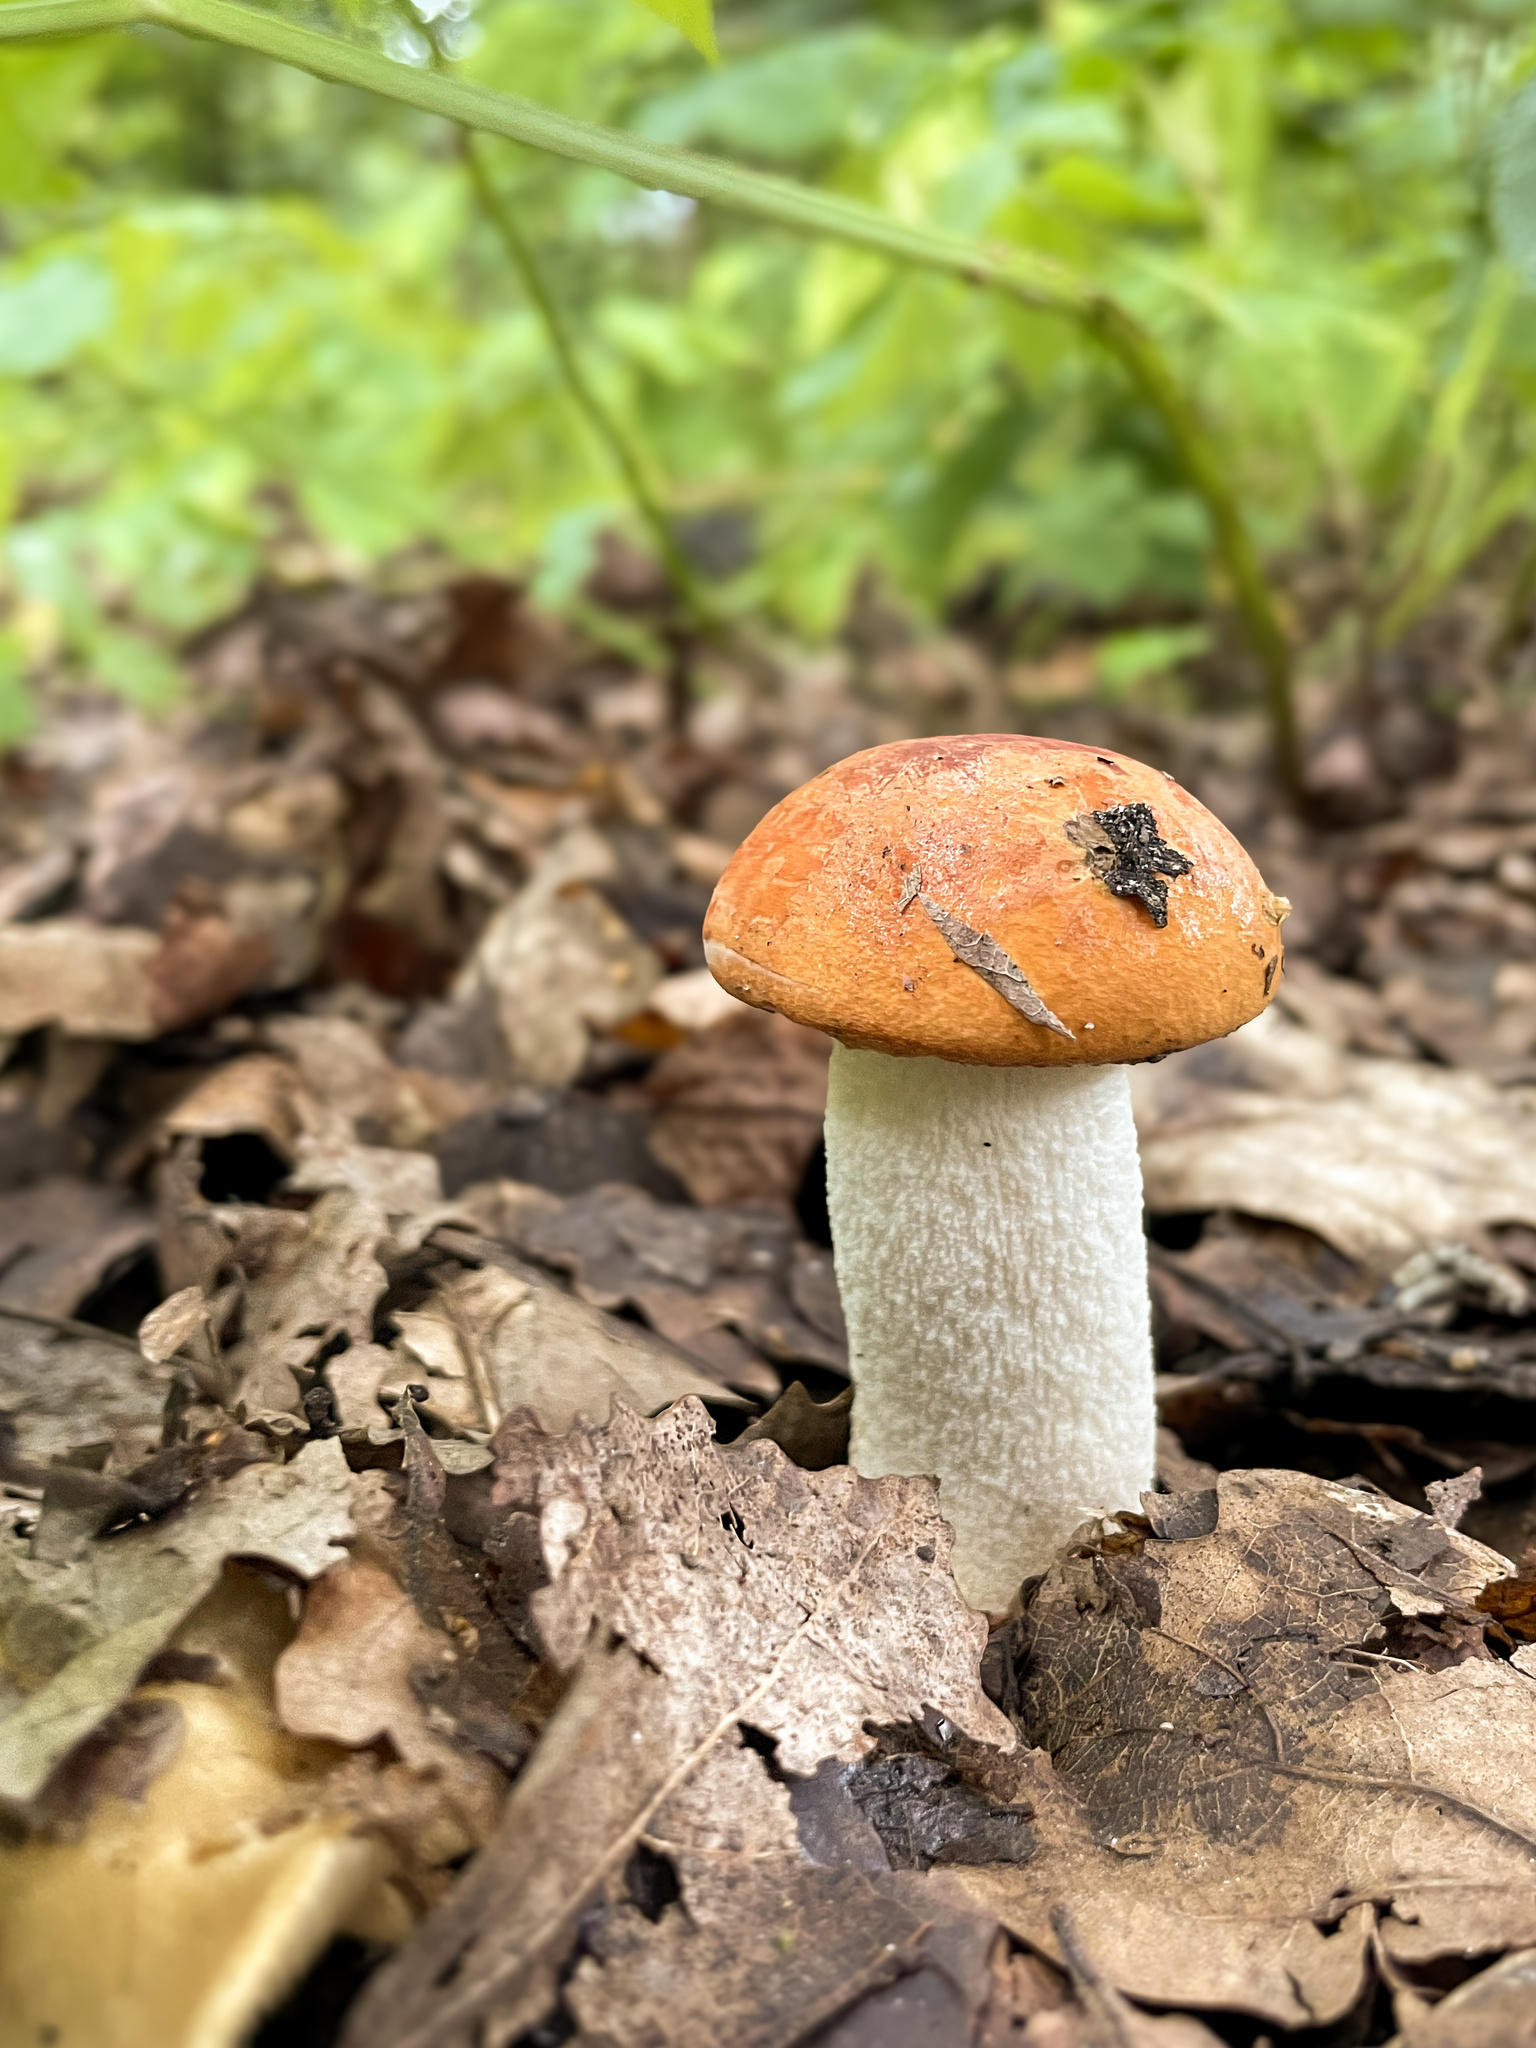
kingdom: Fungi
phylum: Basidiomycota
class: Agaricomycetes
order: Boletales
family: Boletaceae
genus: Leccinum
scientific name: Leccinum albostipitatum
